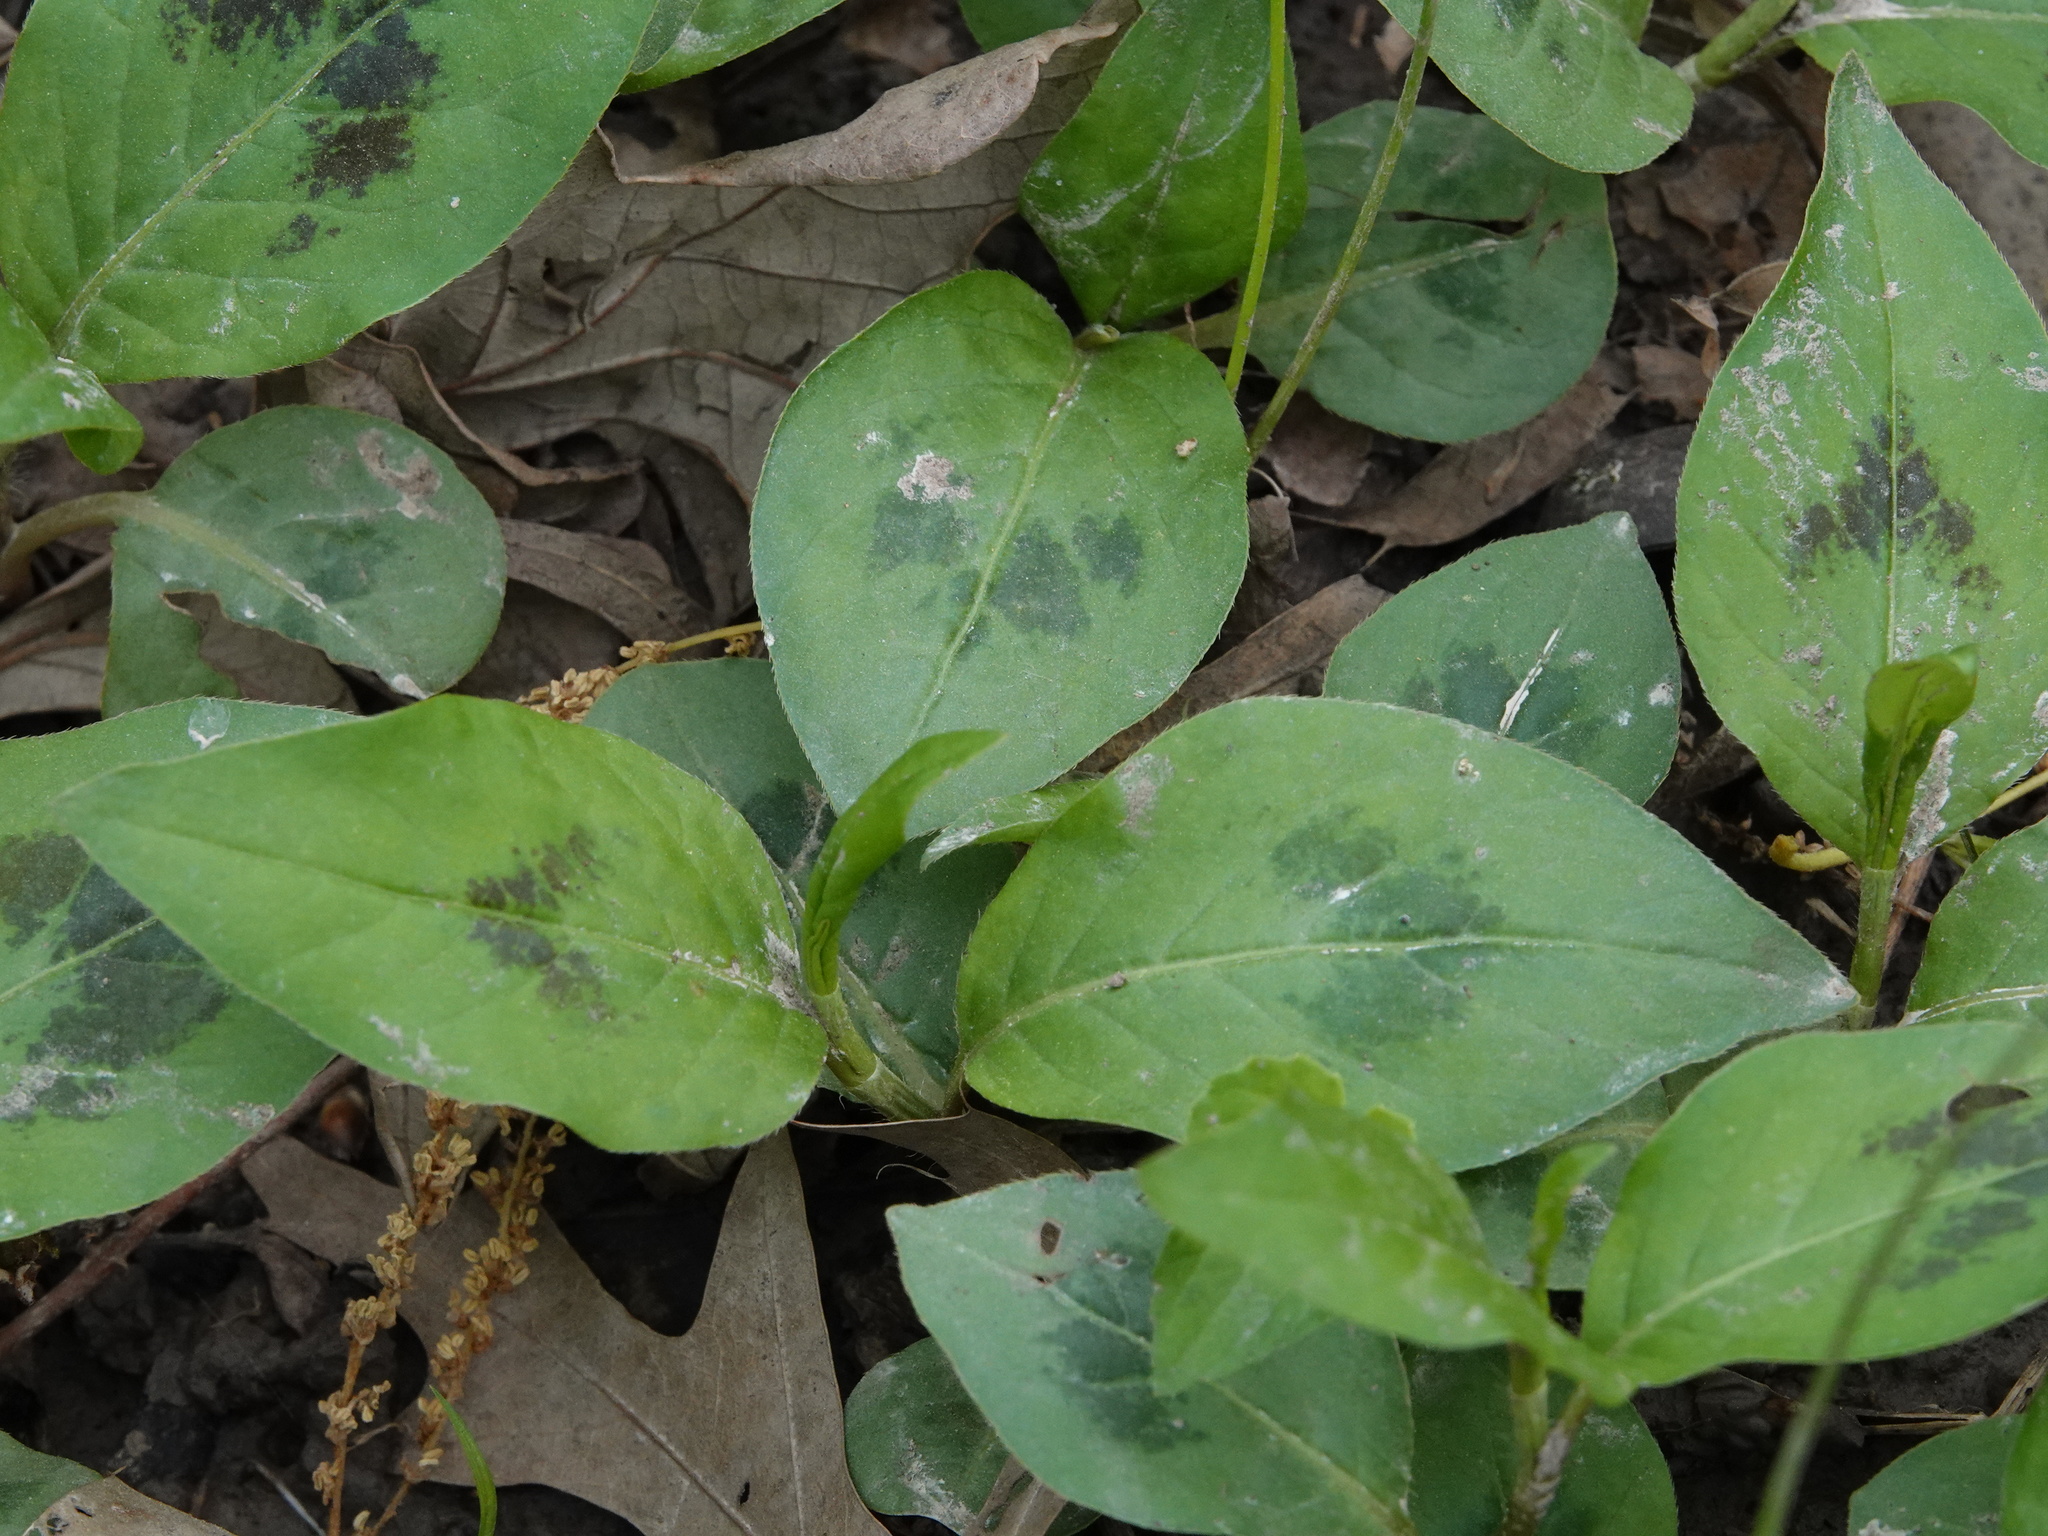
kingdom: Plantae
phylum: Tracheophyta
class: Magnoliopsida
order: Caryophyllales
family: Polygonaceae
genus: Persicaria
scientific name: Persicaria virginiana
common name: Jumpseed
